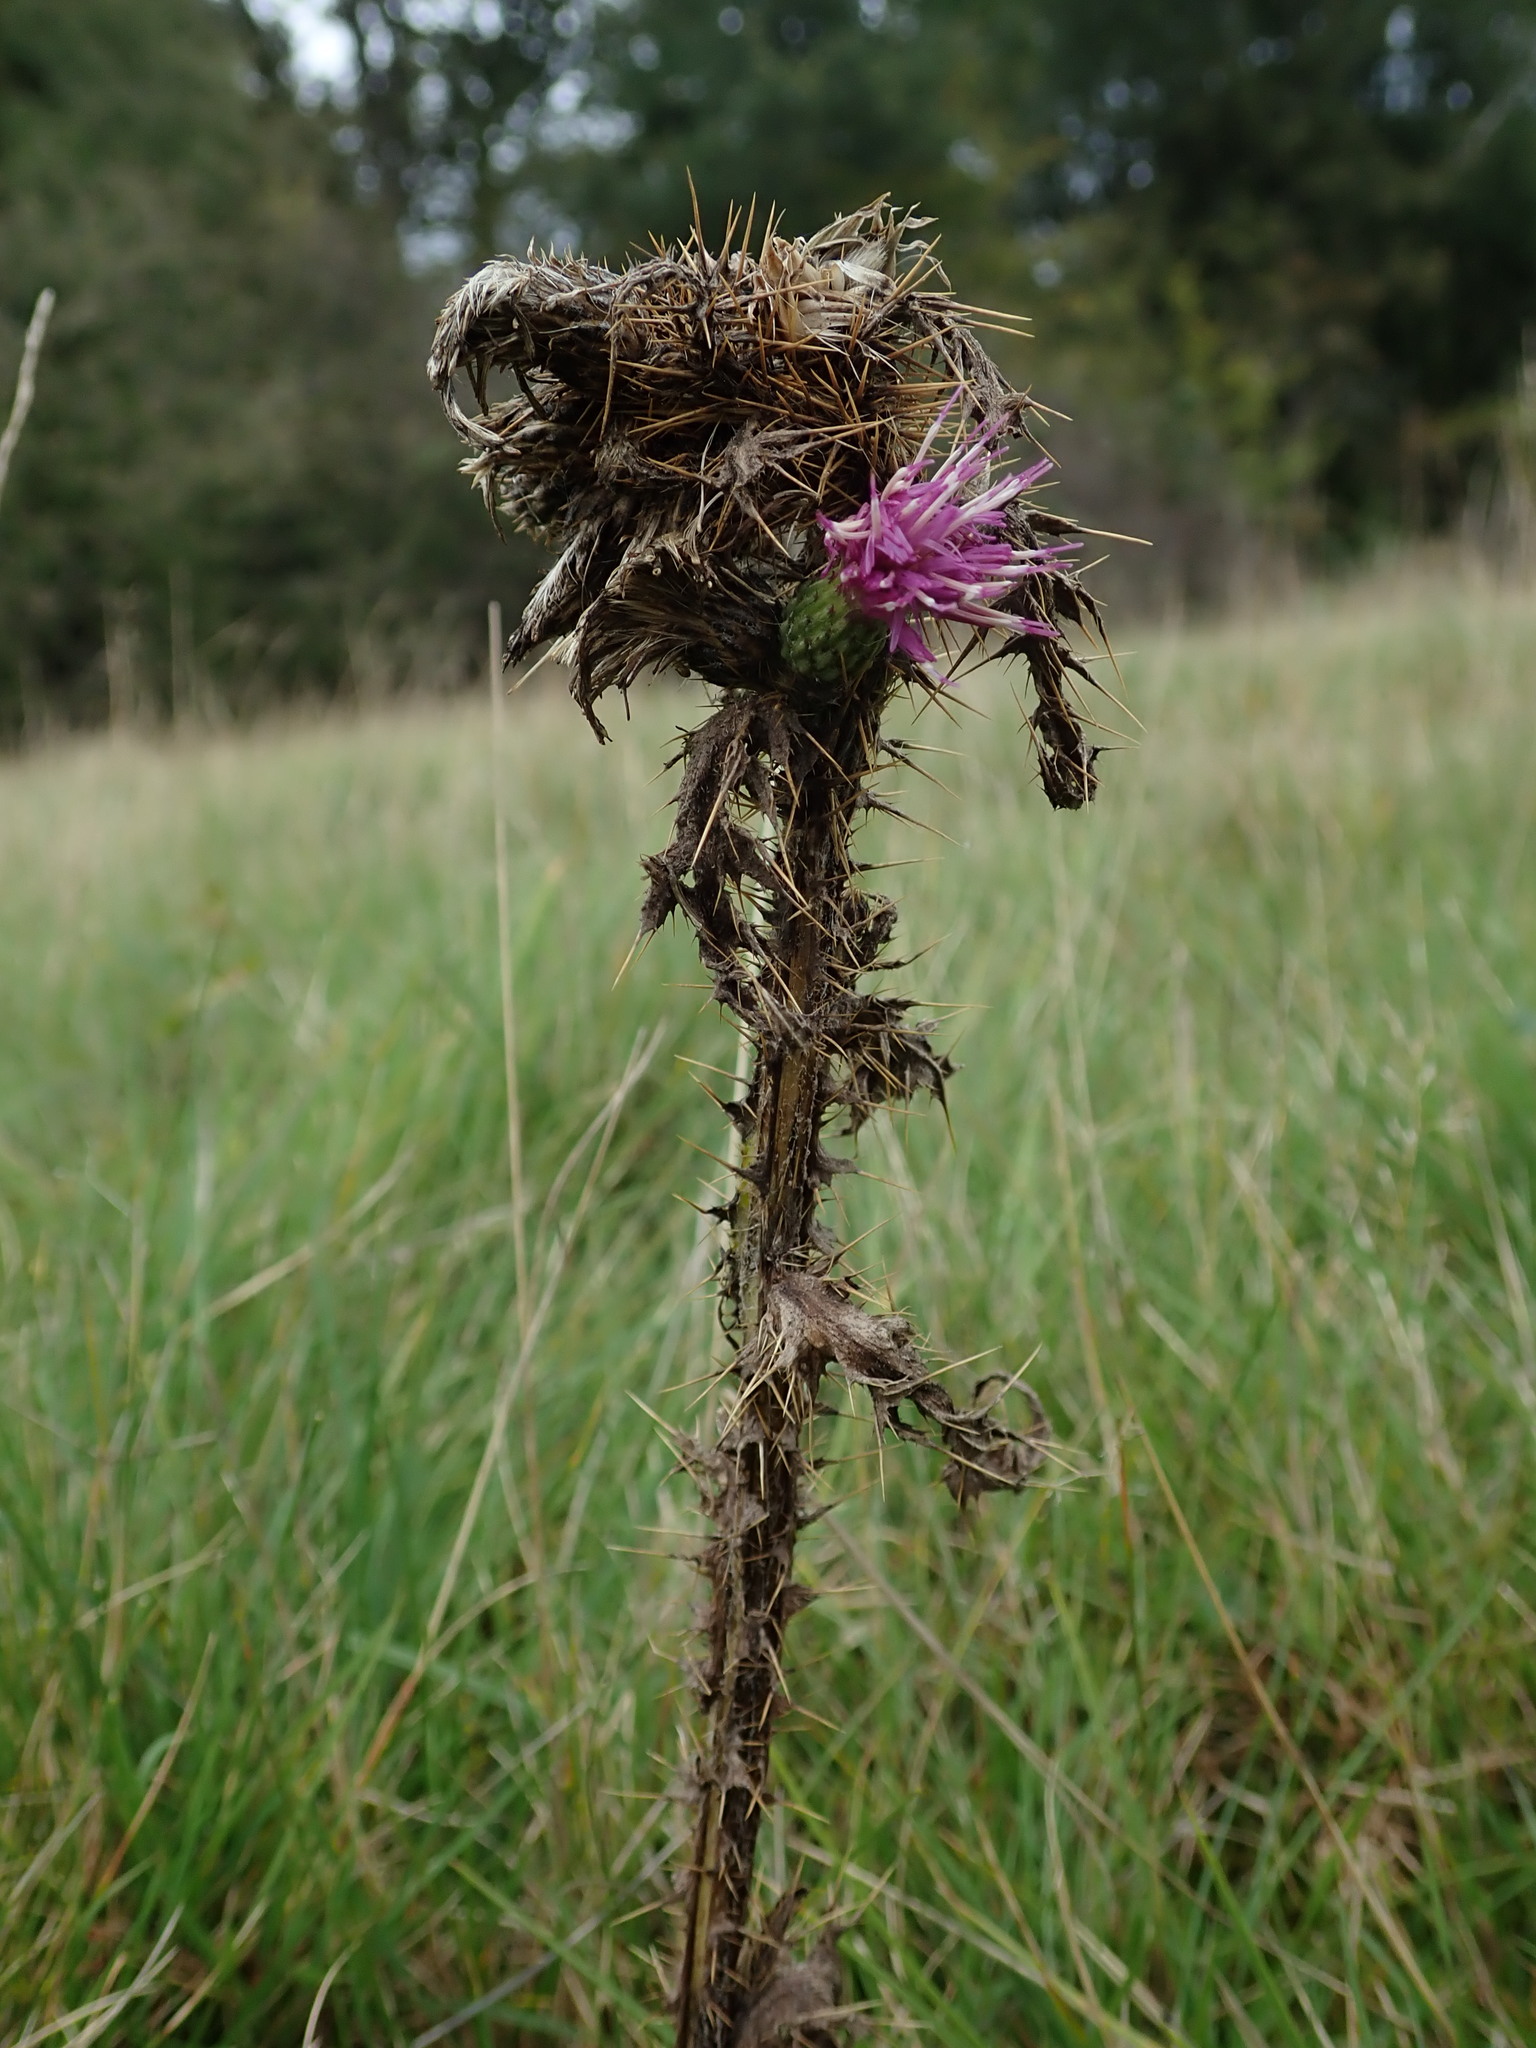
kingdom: Plantae
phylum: Tracheophyta
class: Magnoliopsida
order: Asterales
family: Asteraceae
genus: Cirsium
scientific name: Cirsium palustre
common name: Marsh thistle
